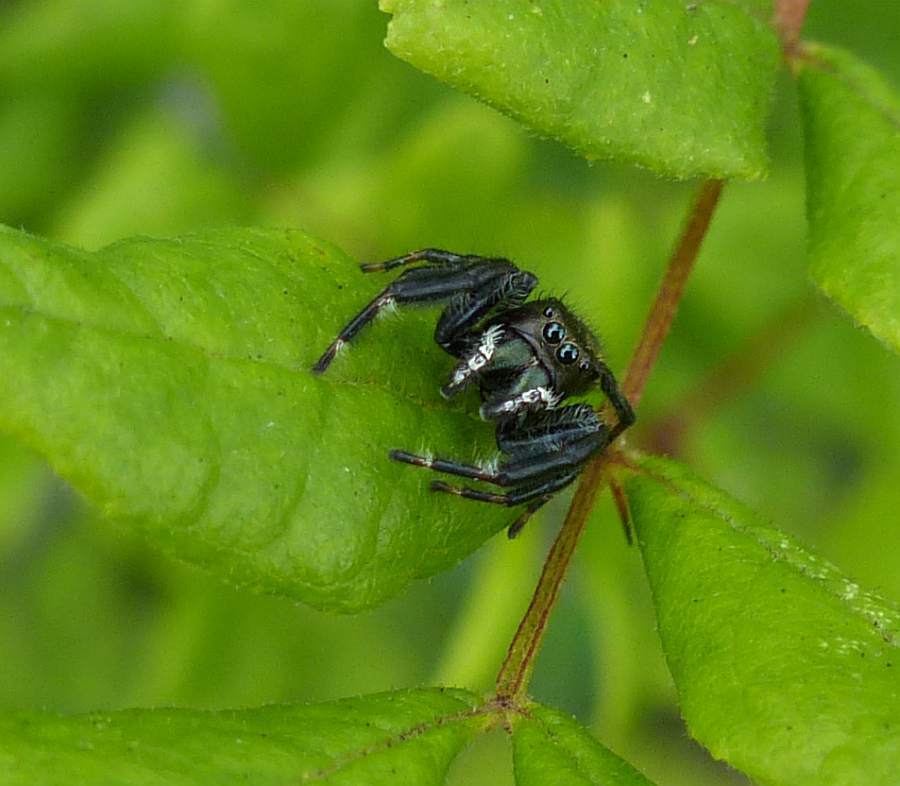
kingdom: Animalia
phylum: Arthropoda
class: Arachnida
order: Araneae
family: Salticidae
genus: Phidippus
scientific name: Phidippus clarus
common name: Brilliant jumping spider
